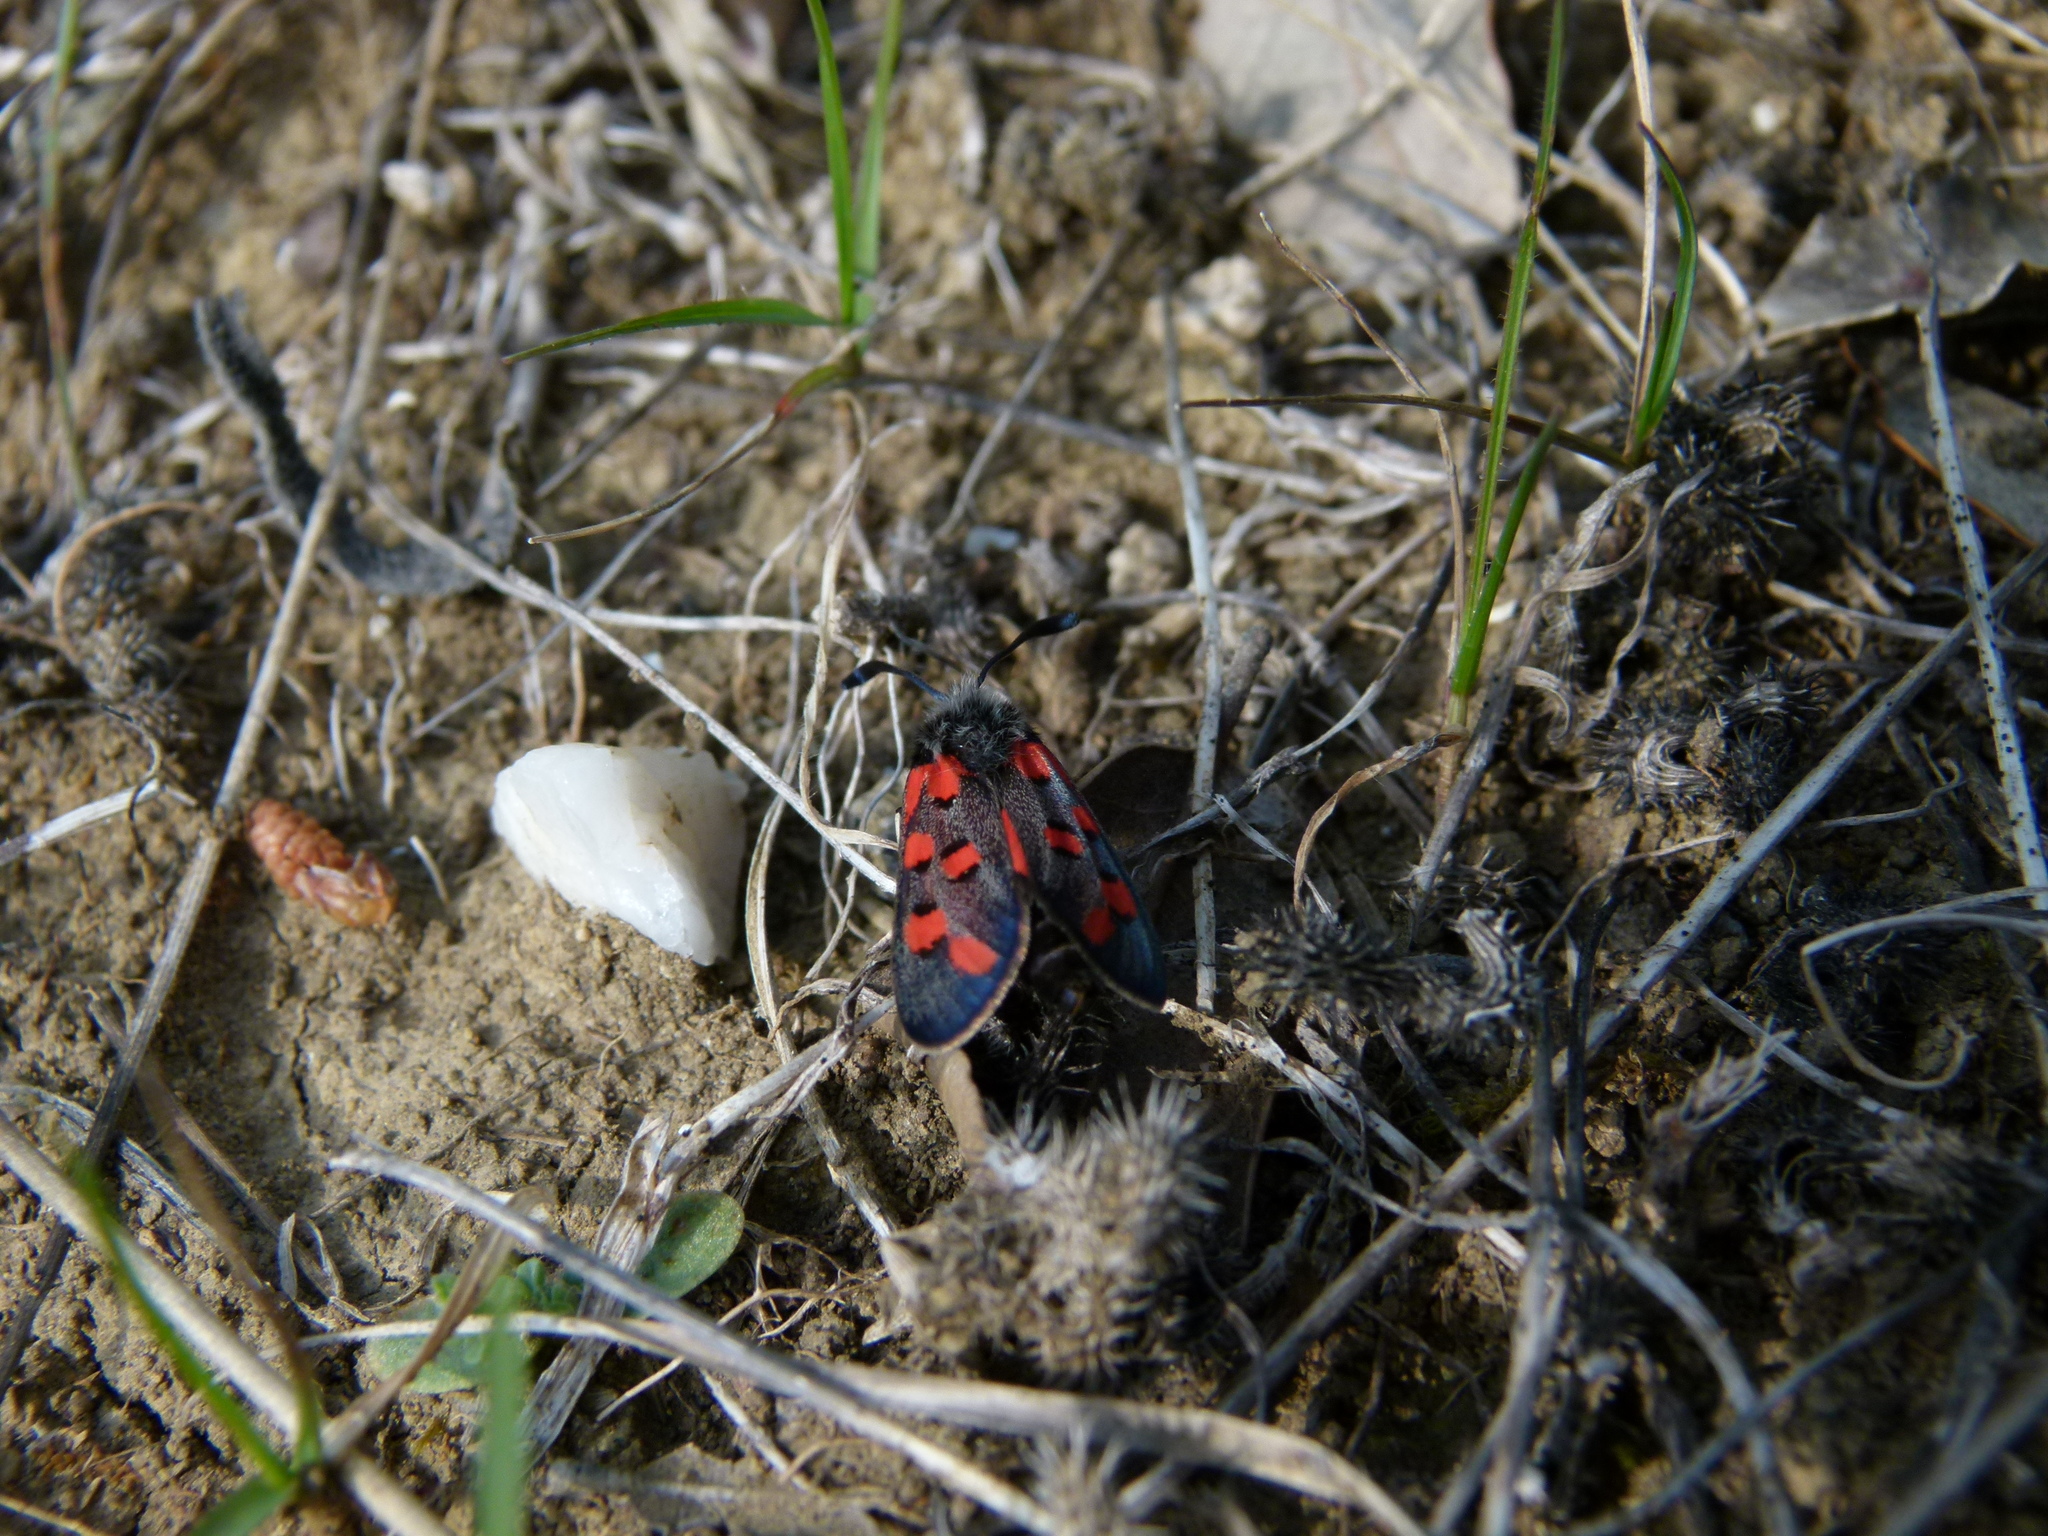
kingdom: Animalia
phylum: Arthropoda
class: Insecta
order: Lepidoptera
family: Zygaenidae
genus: Zygaena
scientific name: Zygaena rhadamanthus
